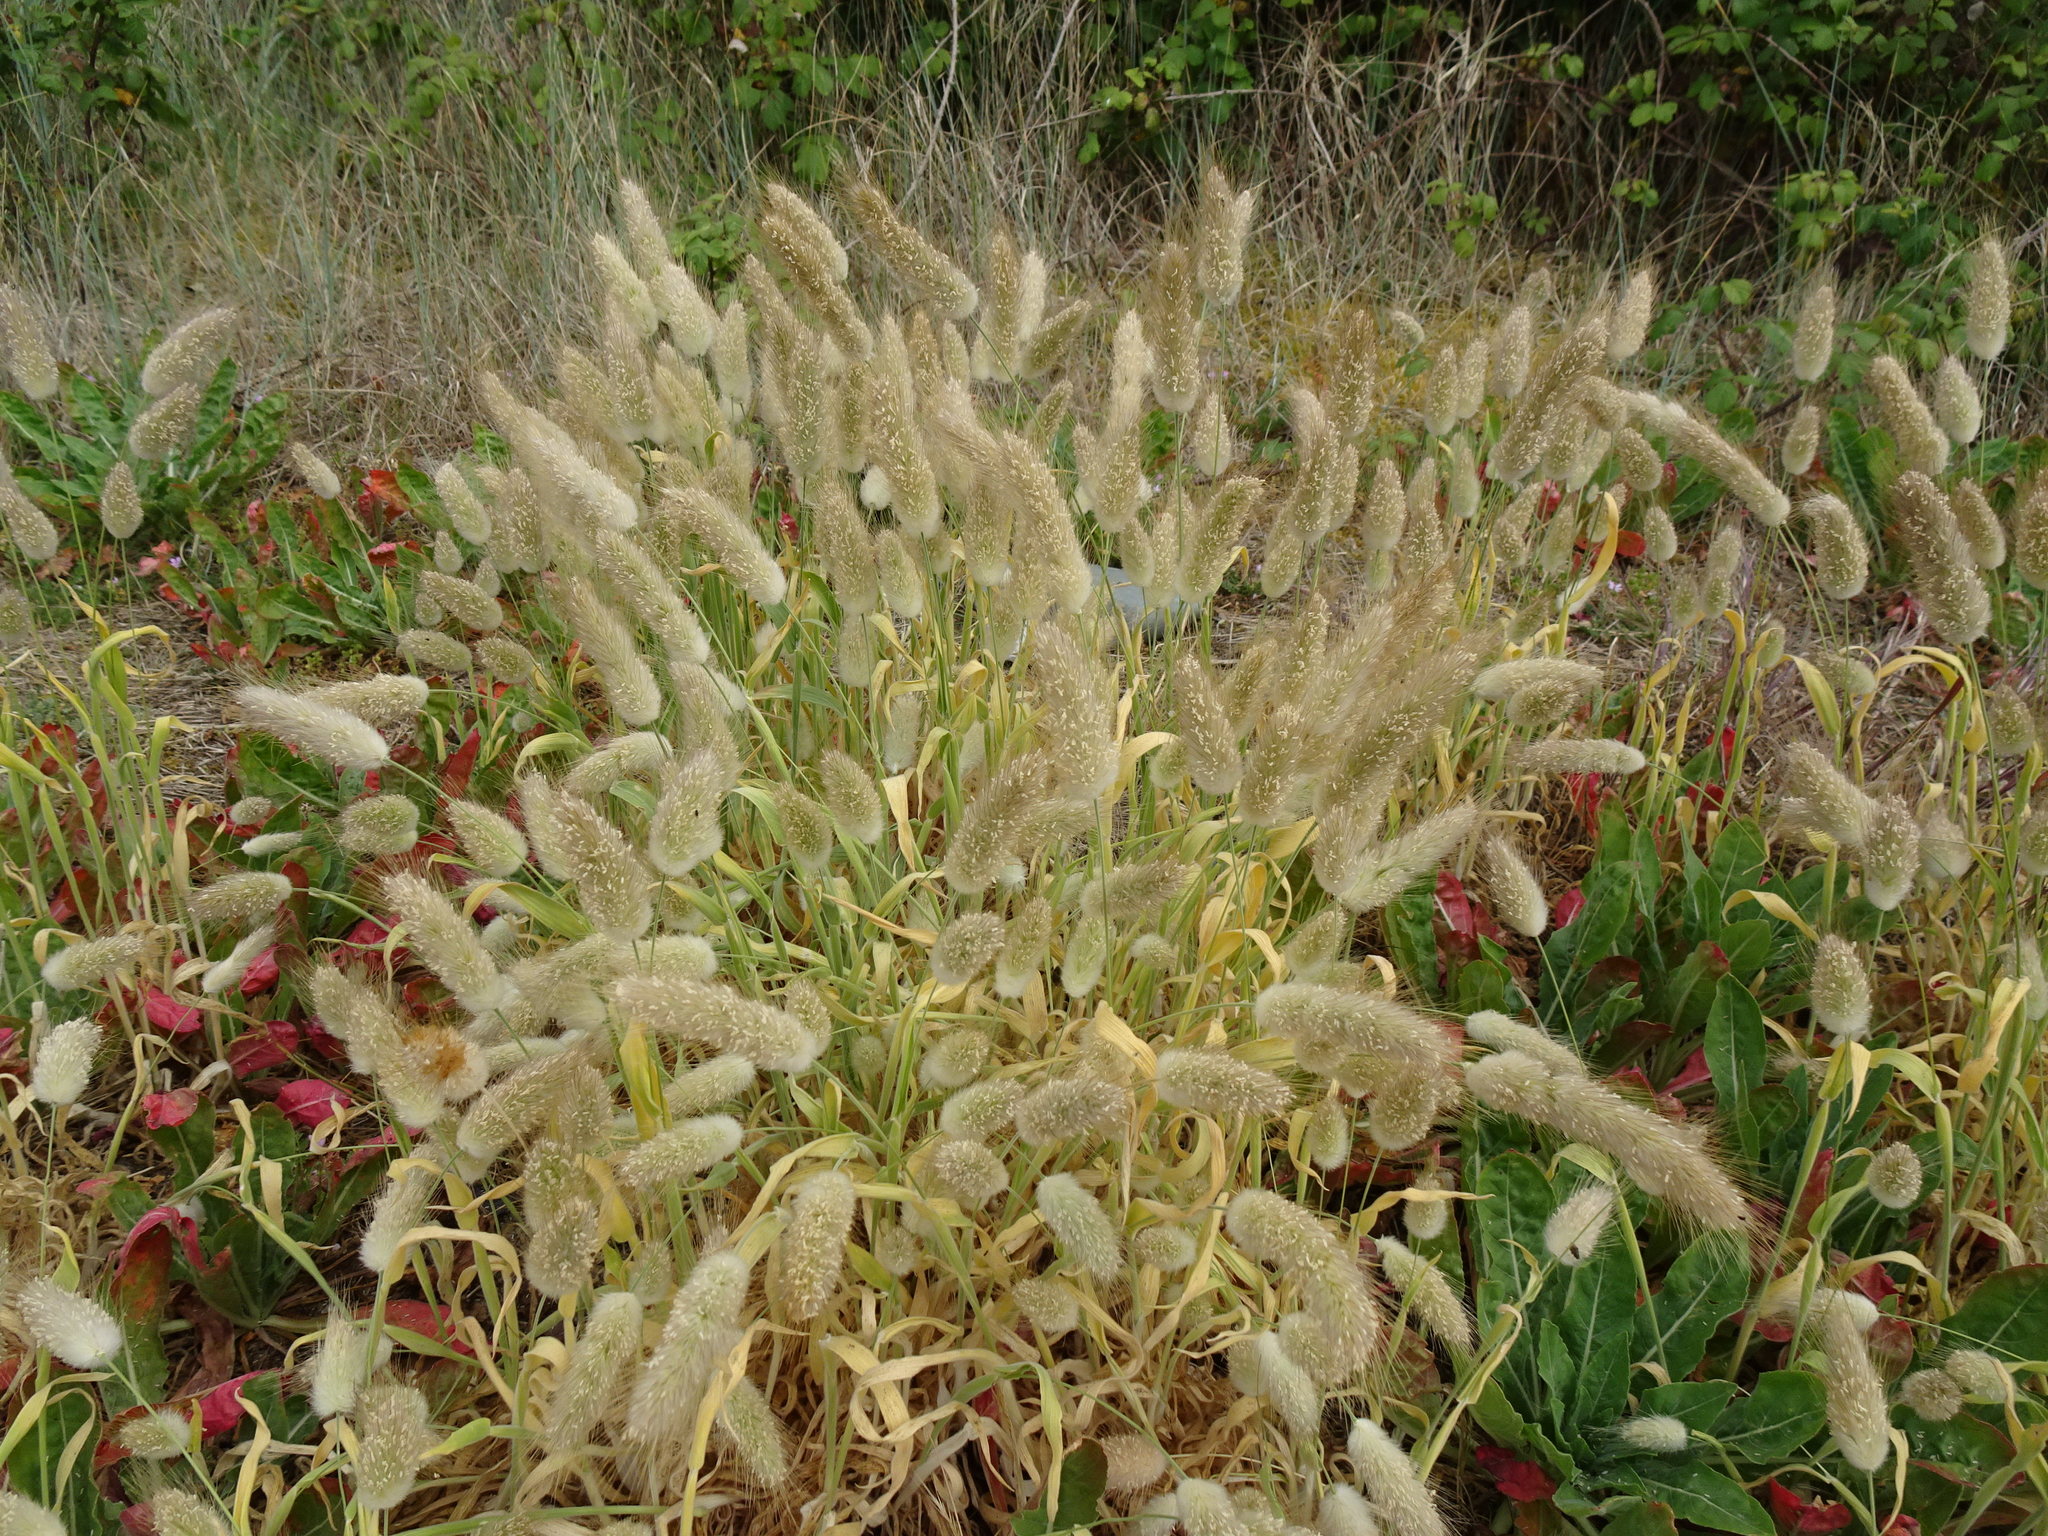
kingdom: Plantae
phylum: Tracheophyta
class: Liliopsida
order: Poales
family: Poaceae
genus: Lagurus
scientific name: Lagurus ovatus
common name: Hare's-tail
